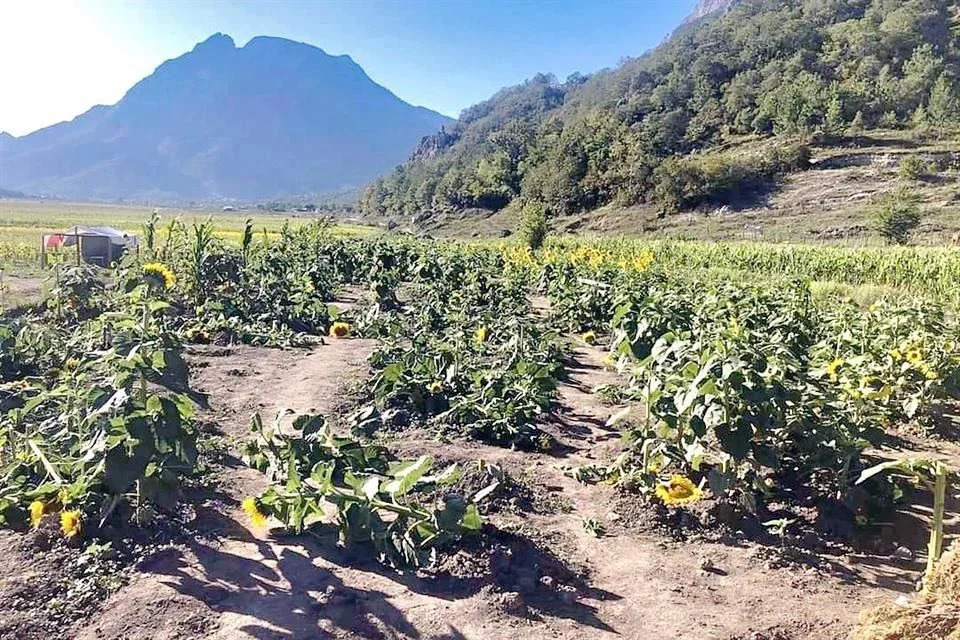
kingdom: Plantae
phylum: Tracheophyta
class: Magnoliopsida
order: Asterales
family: Asteraceae
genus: Helianthus
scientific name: Helianthus annuus
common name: Sunflower
